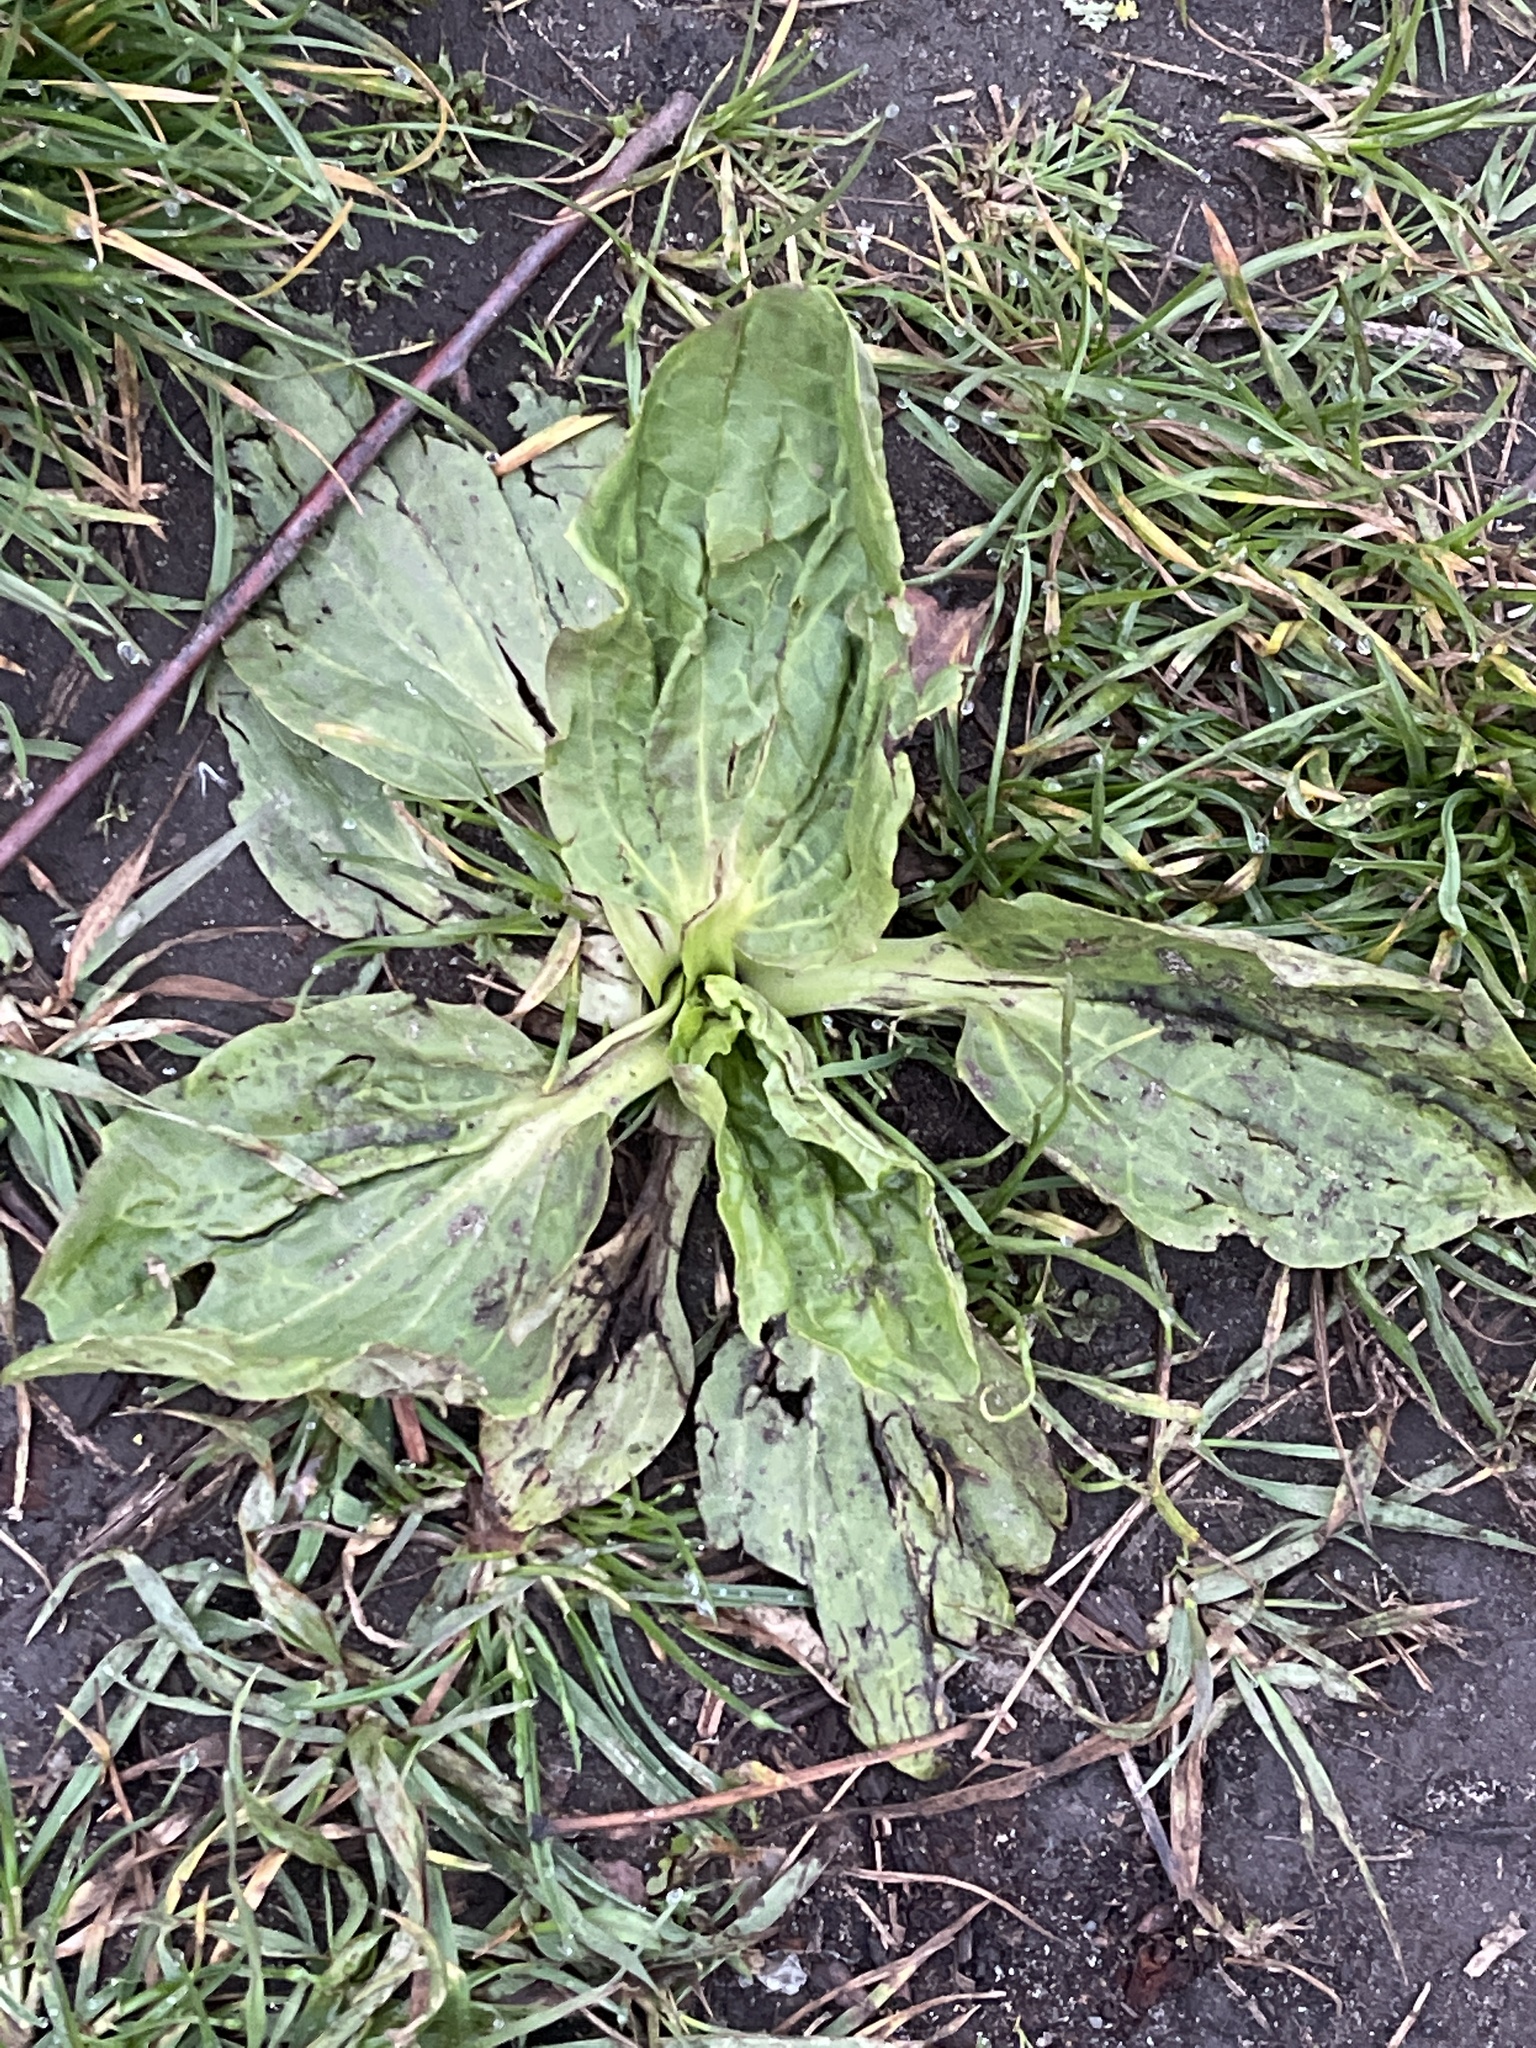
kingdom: Plantae
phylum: Tracheophyta
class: Magnoliopsida
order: Lamiales
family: Plantaginaceae
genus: Plantago
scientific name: Plantago major
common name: Common plantain
